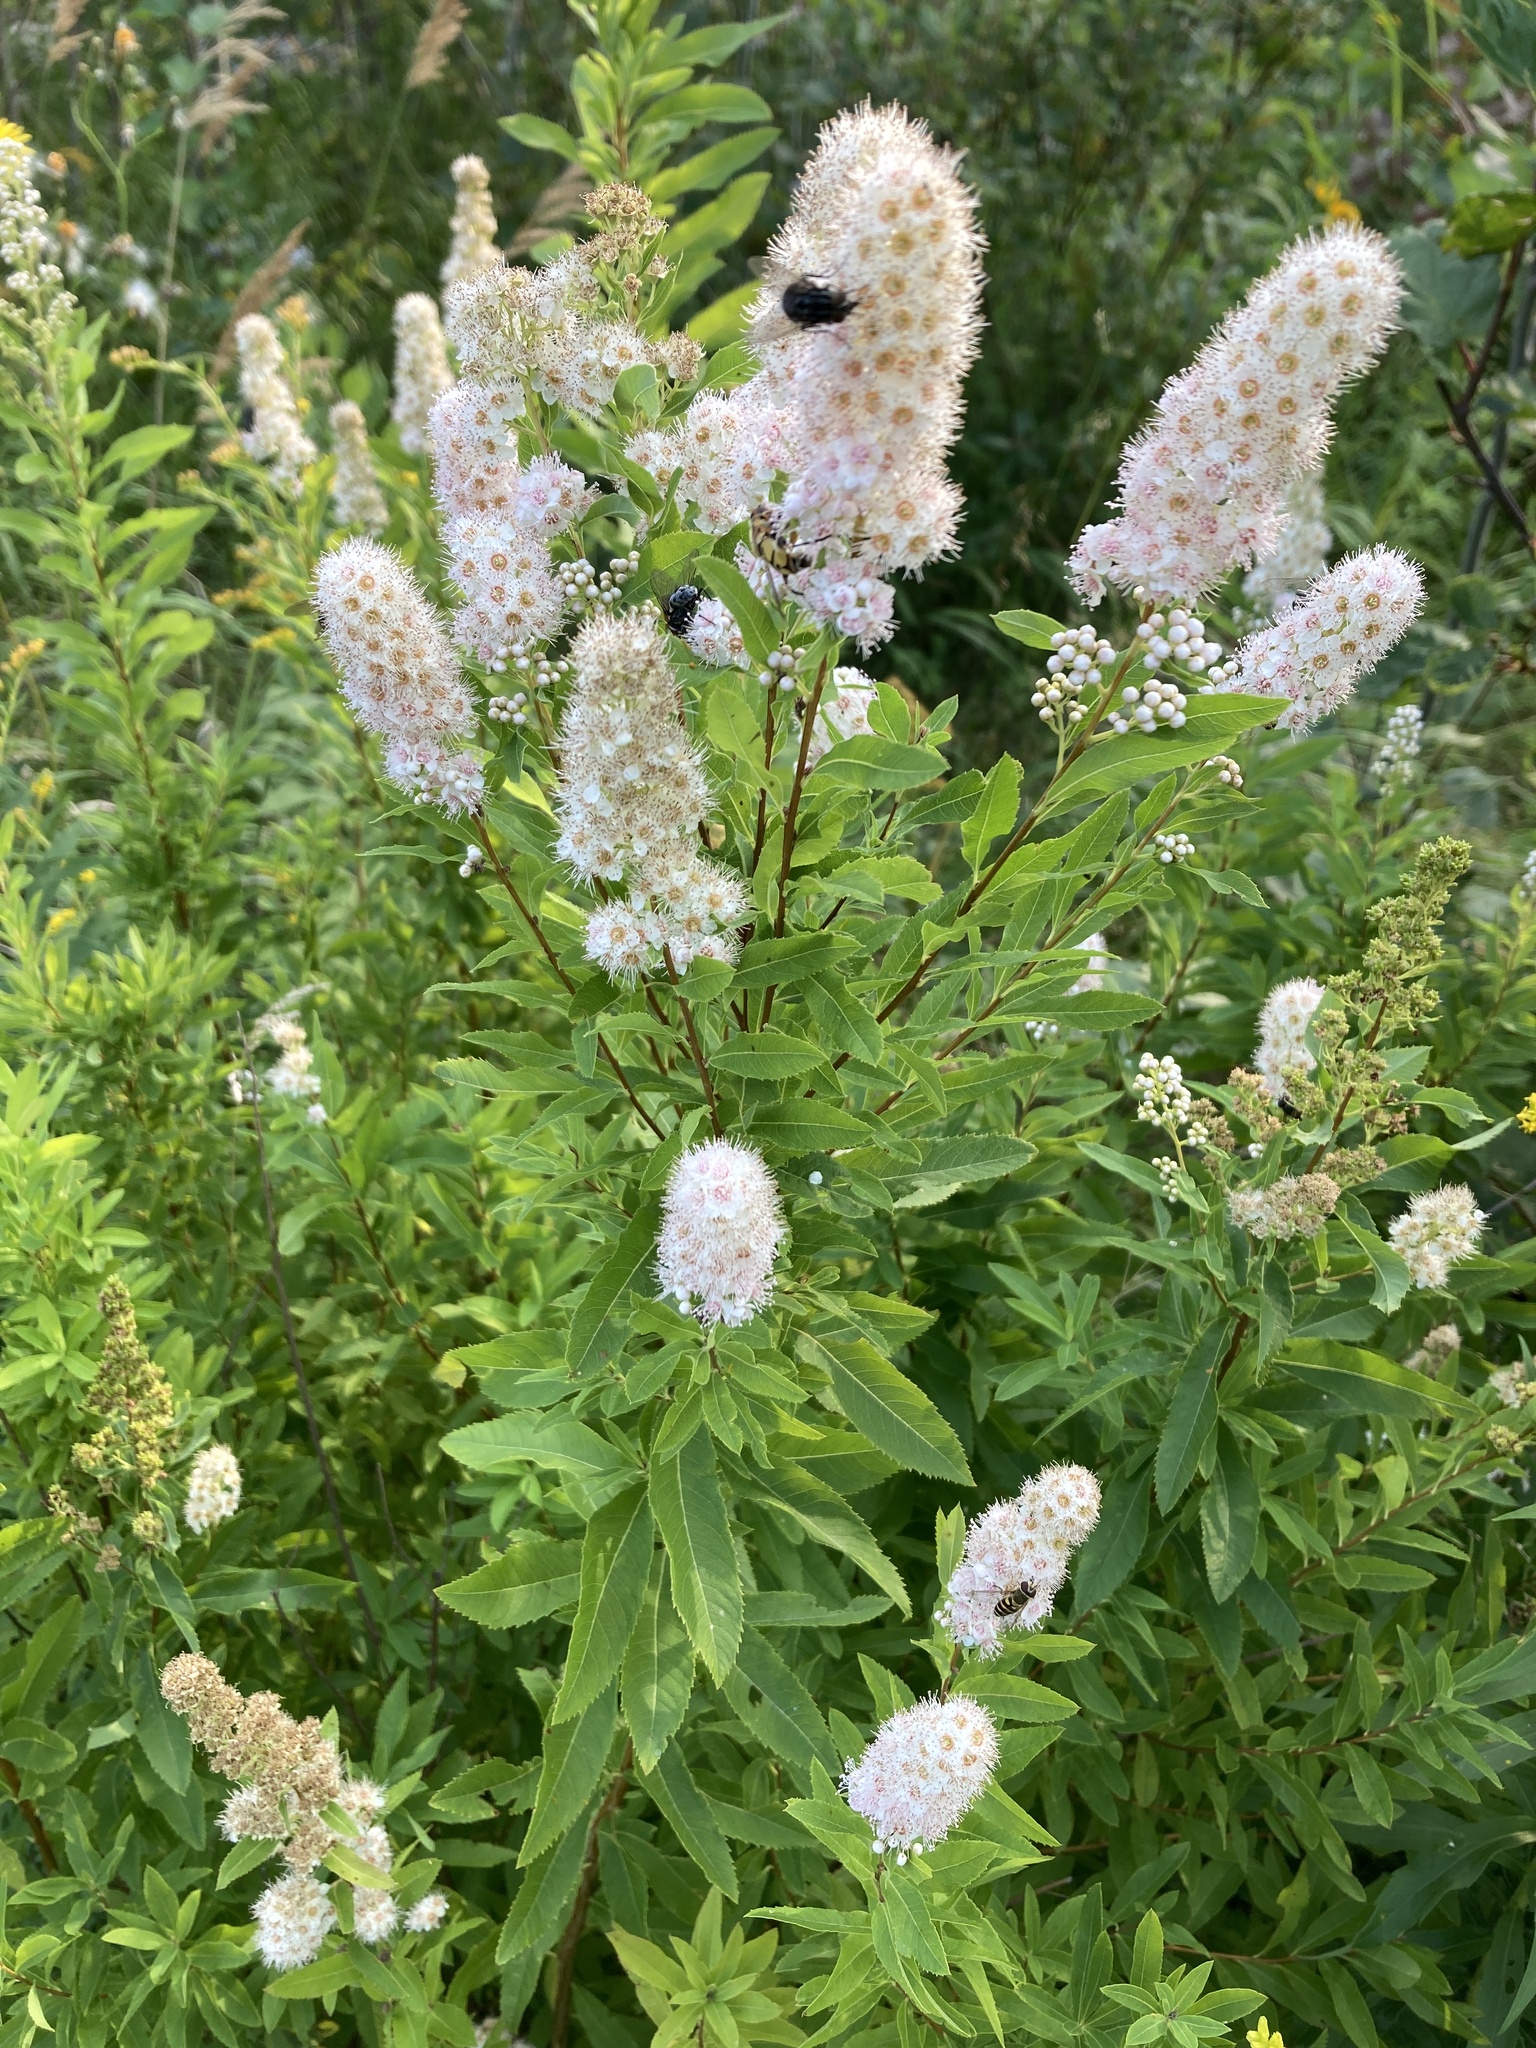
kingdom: Plantae
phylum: Tracheophyta
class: Magnoliopsida
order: Rosales
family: Rosaceae
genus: Spiraea
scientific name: Spiraea alba
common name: Pale bridewort
